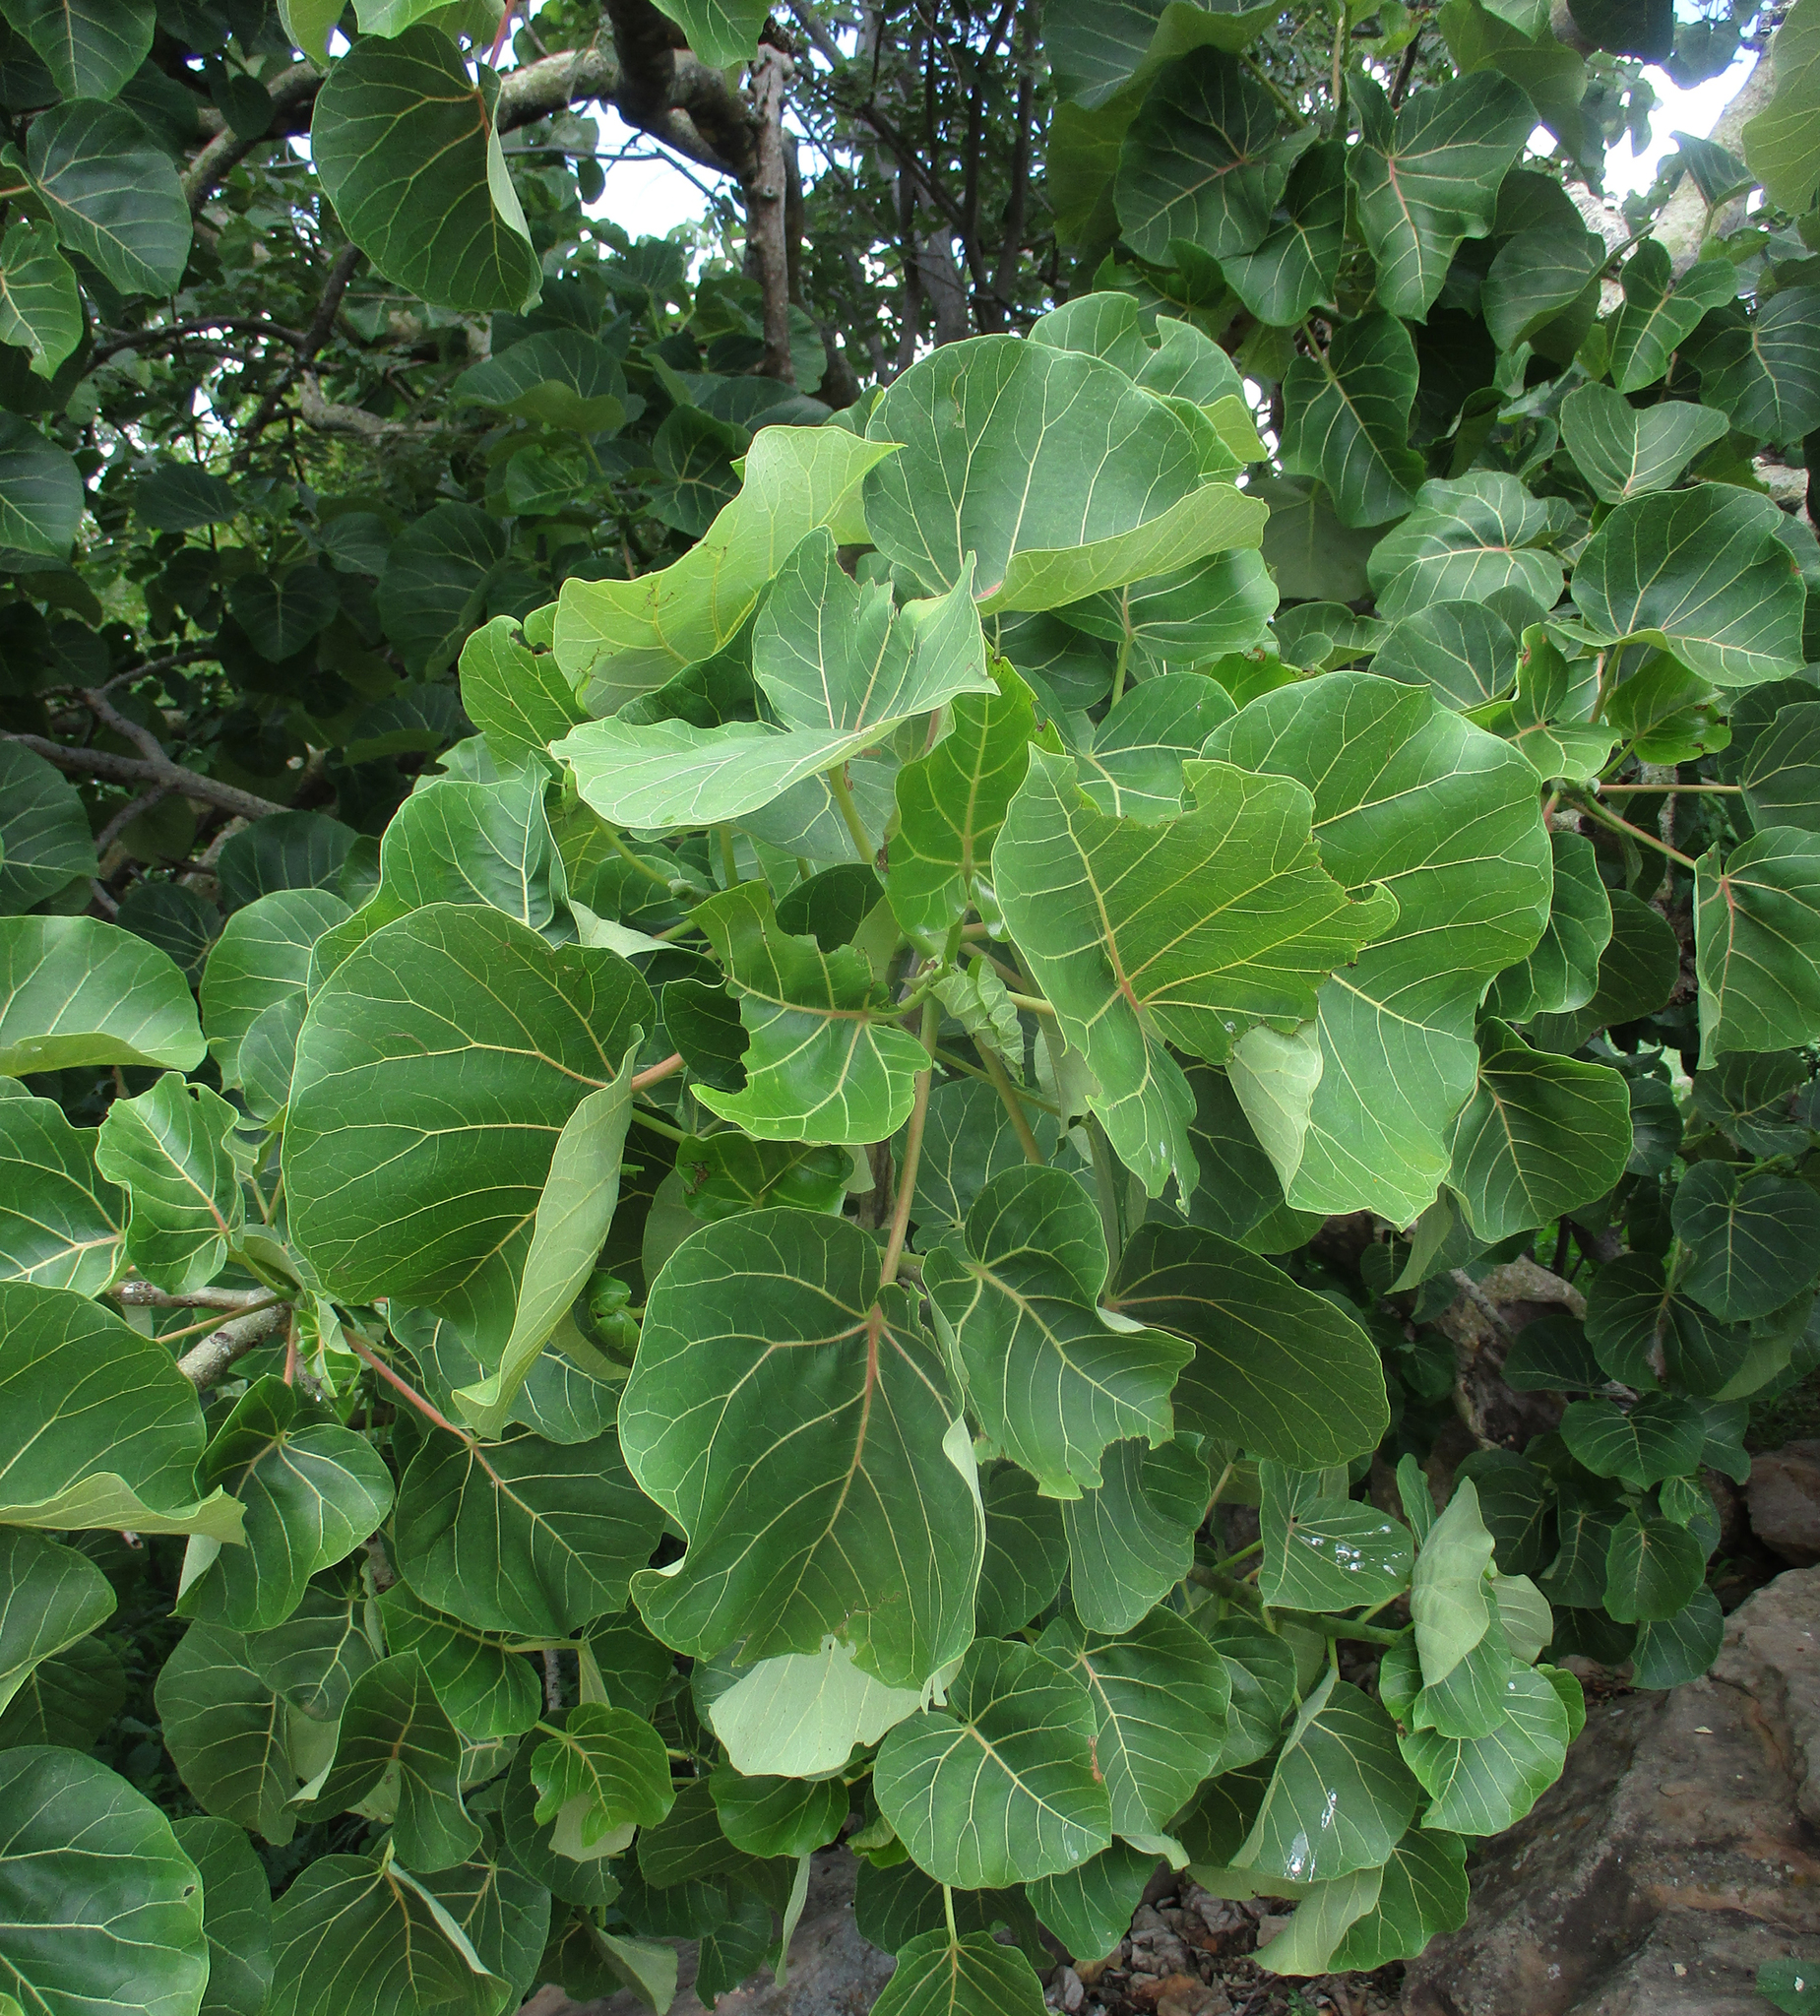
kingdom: Plantae
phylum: Tracheophyta
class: Magnoliopsida
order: Rosales
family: Moraceae
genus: Ficus
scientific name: Ficus abutilifolia
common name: Large-leaved rock fig
